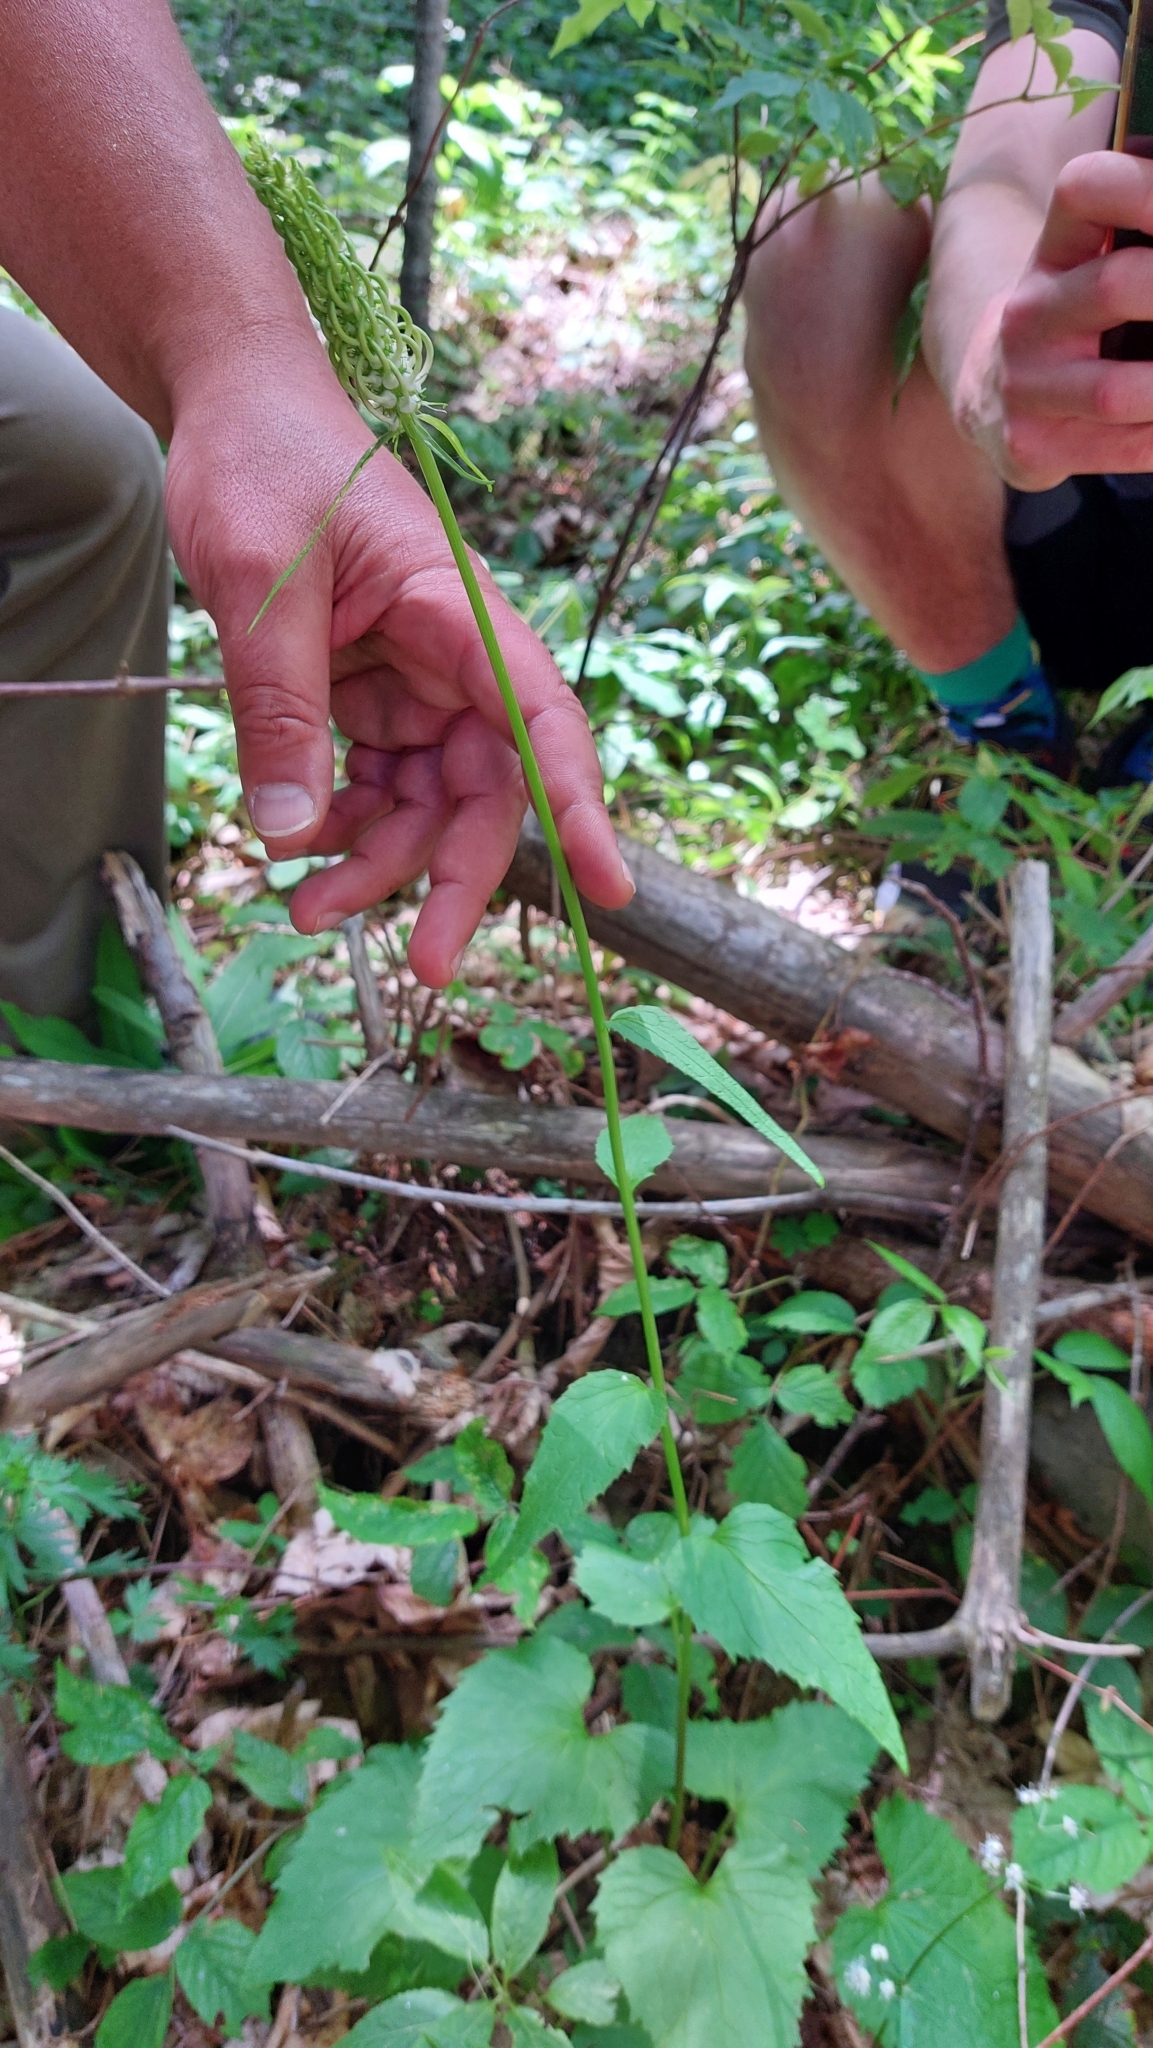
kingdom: Plantae
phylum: Tracheophyta
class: Magnoliopsida
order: Asterales
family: Campanulaceae
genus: Phyteuma
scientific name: Phyteuma spicatum
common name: Spiked rampion
